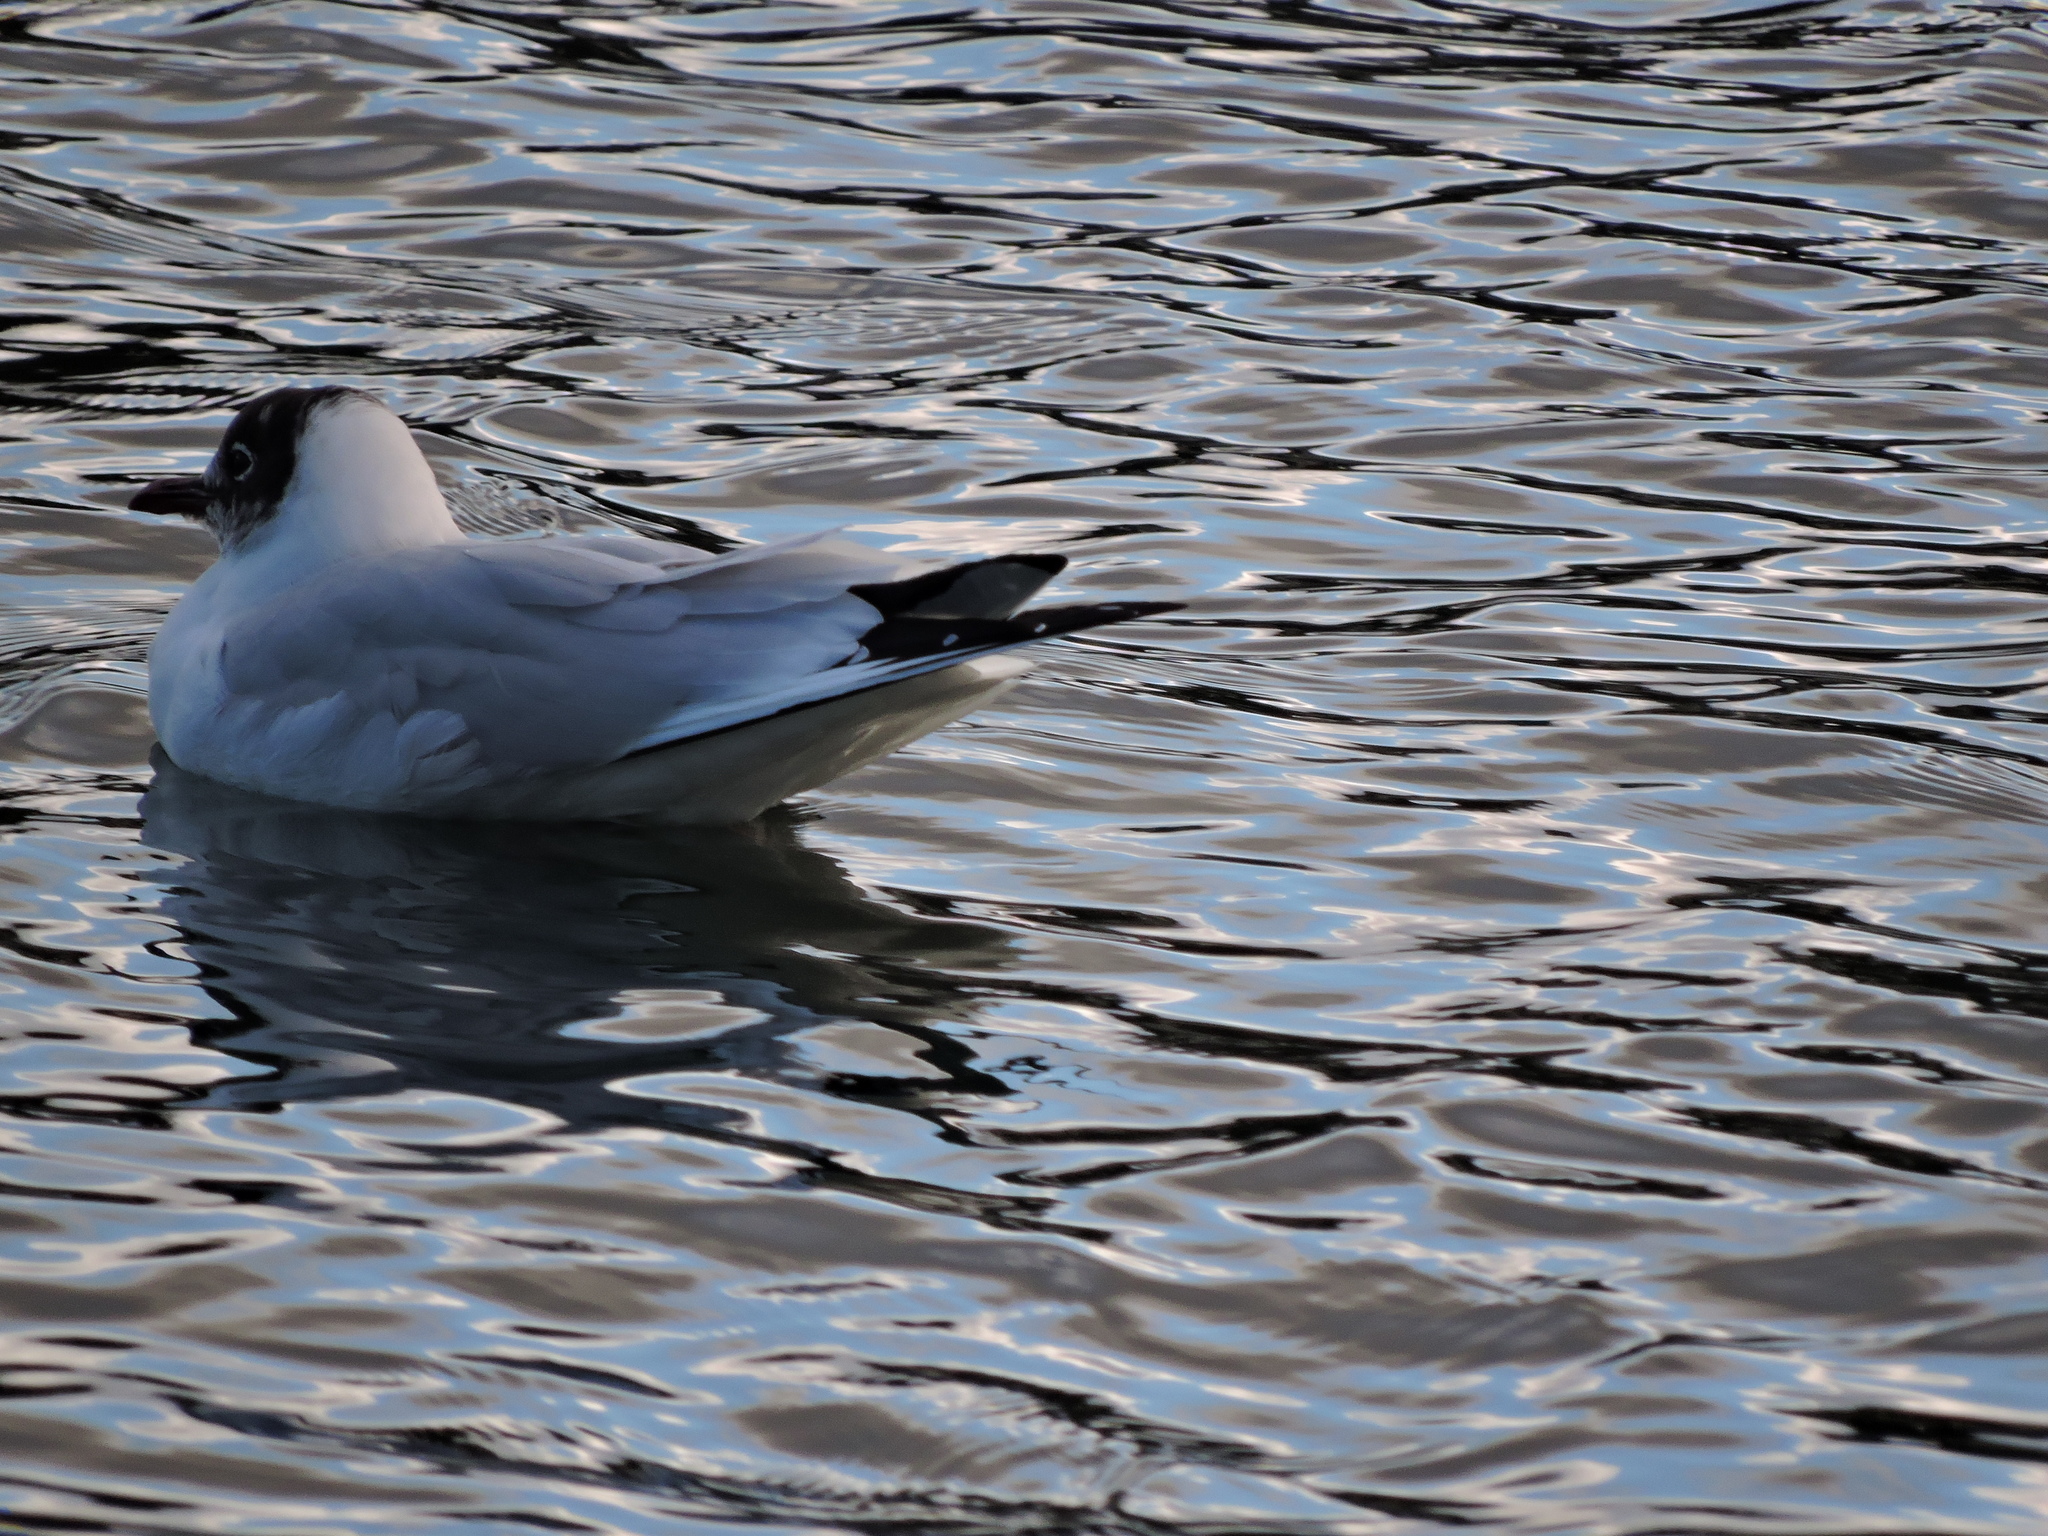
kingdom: Animalia
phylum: Chordata
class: Aves
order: Charadriiformes
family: Laridae
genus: Chroicocephalus
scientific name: Chroicocephalus ridibundus
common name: Black-headed gull
